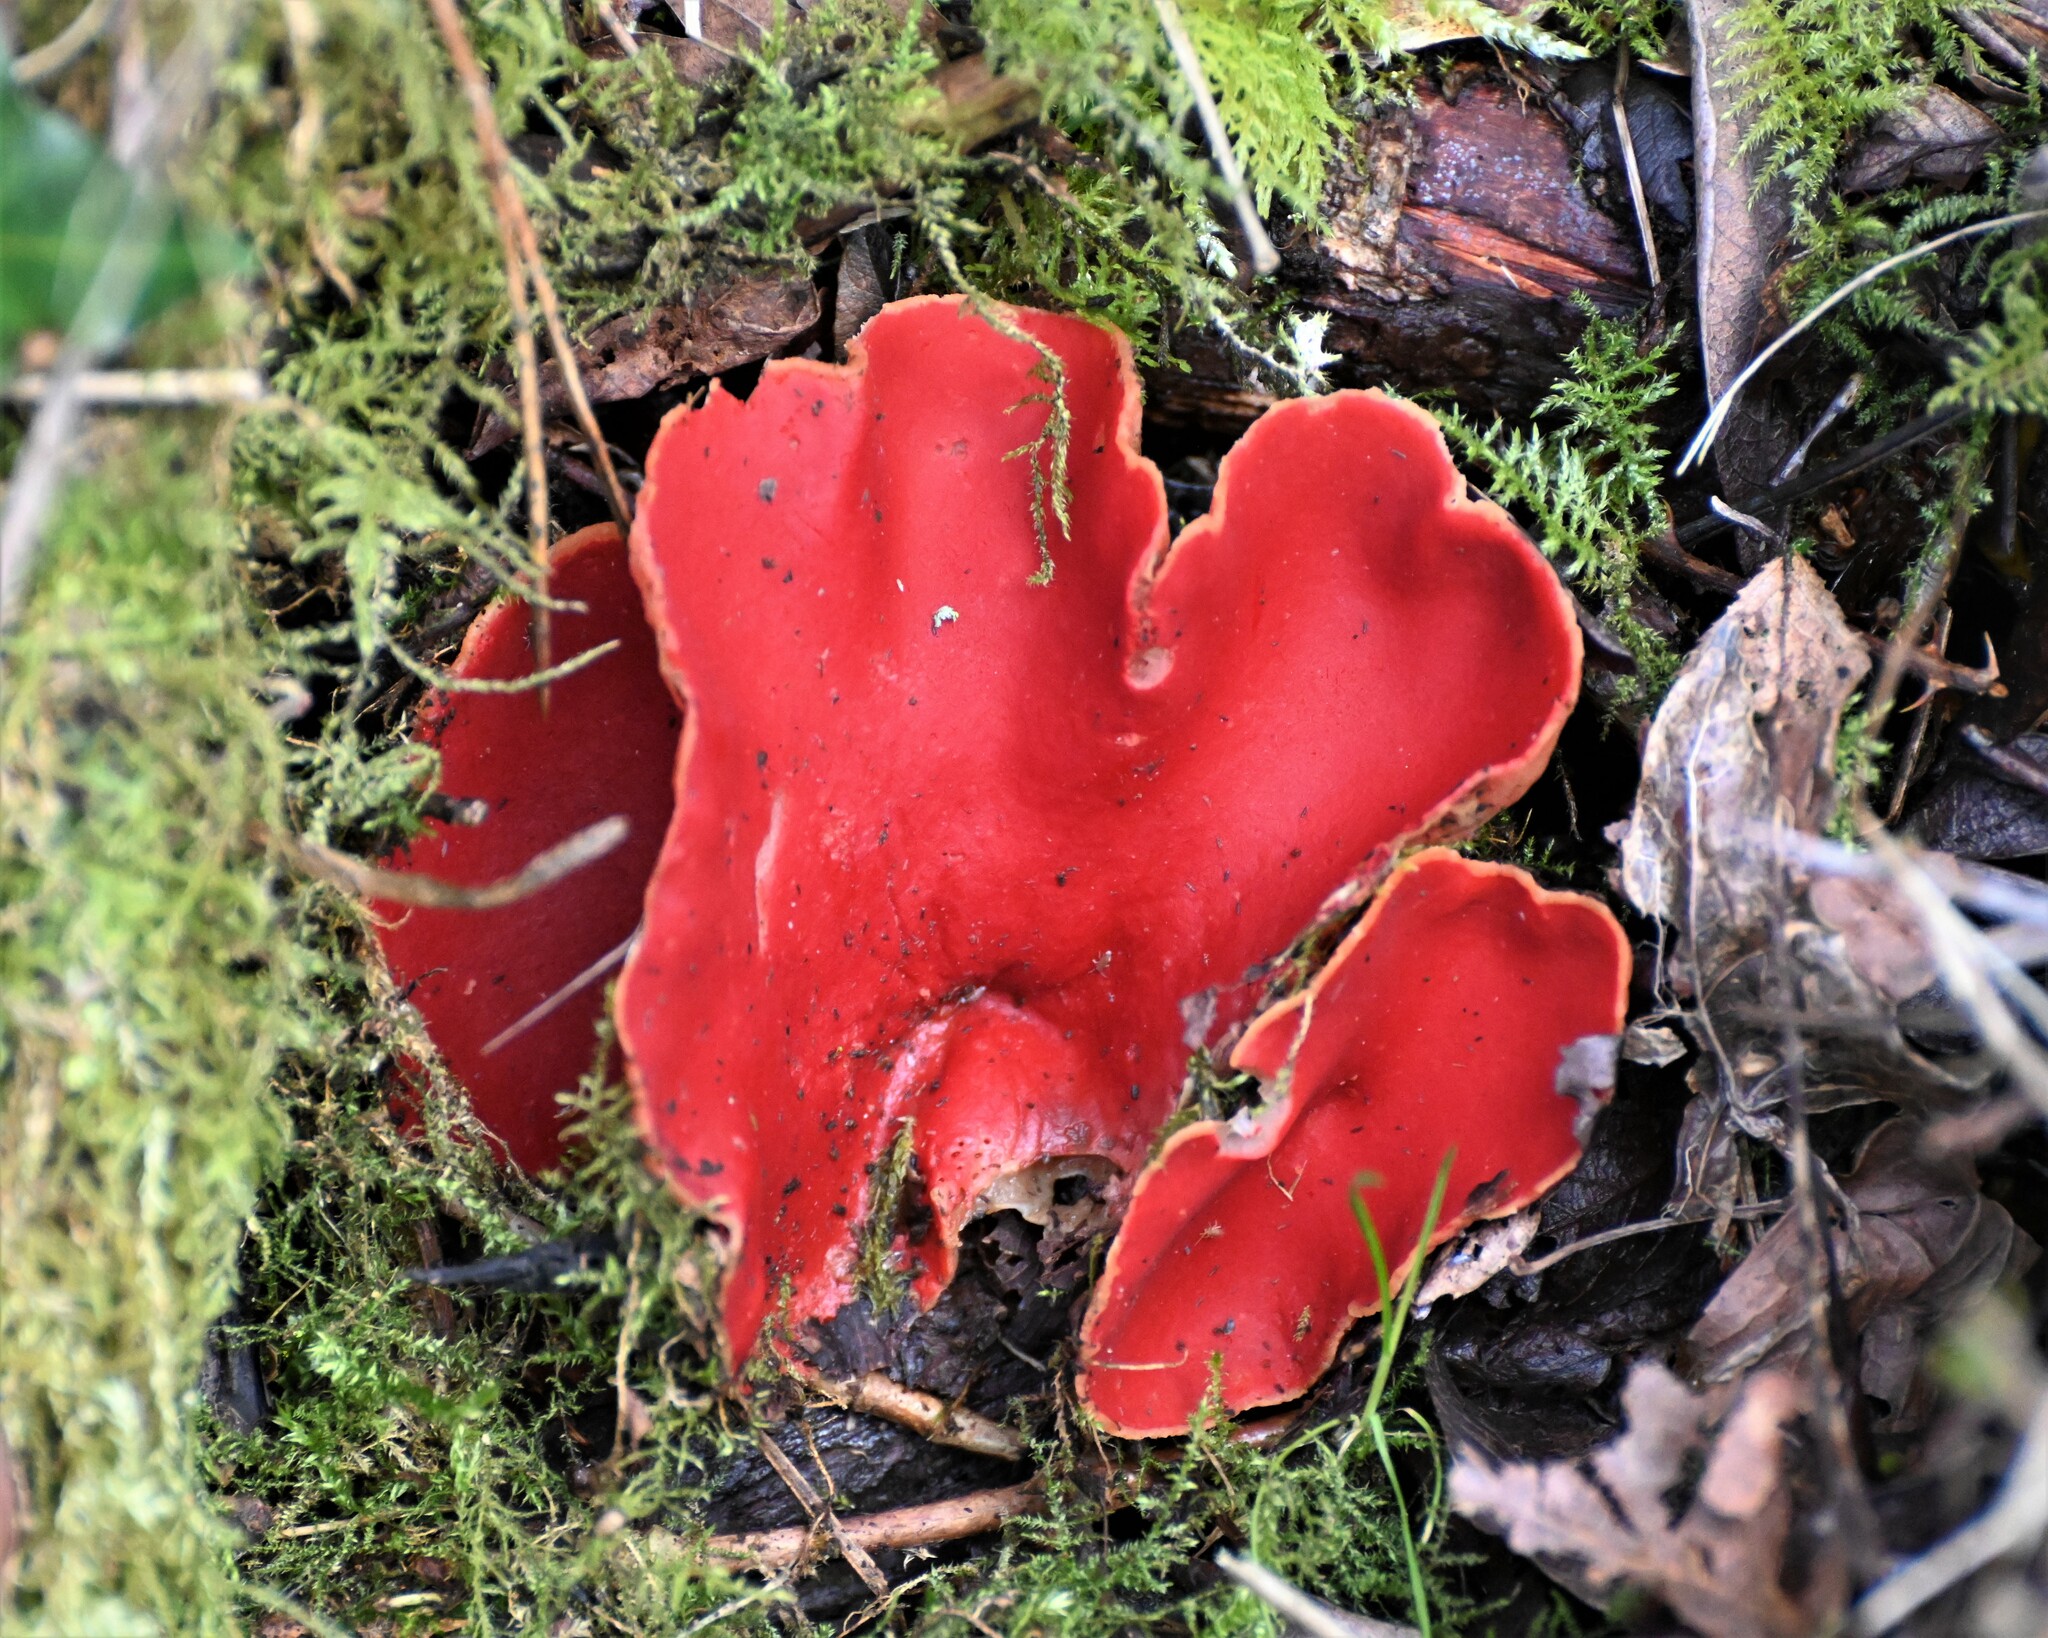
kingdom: Fungi
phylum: Ascomycota
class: Pezizomycetes
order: Pezizales
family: Sarcoscyphaceae
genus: Sarcoscypha
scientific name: Sarcoscypha
